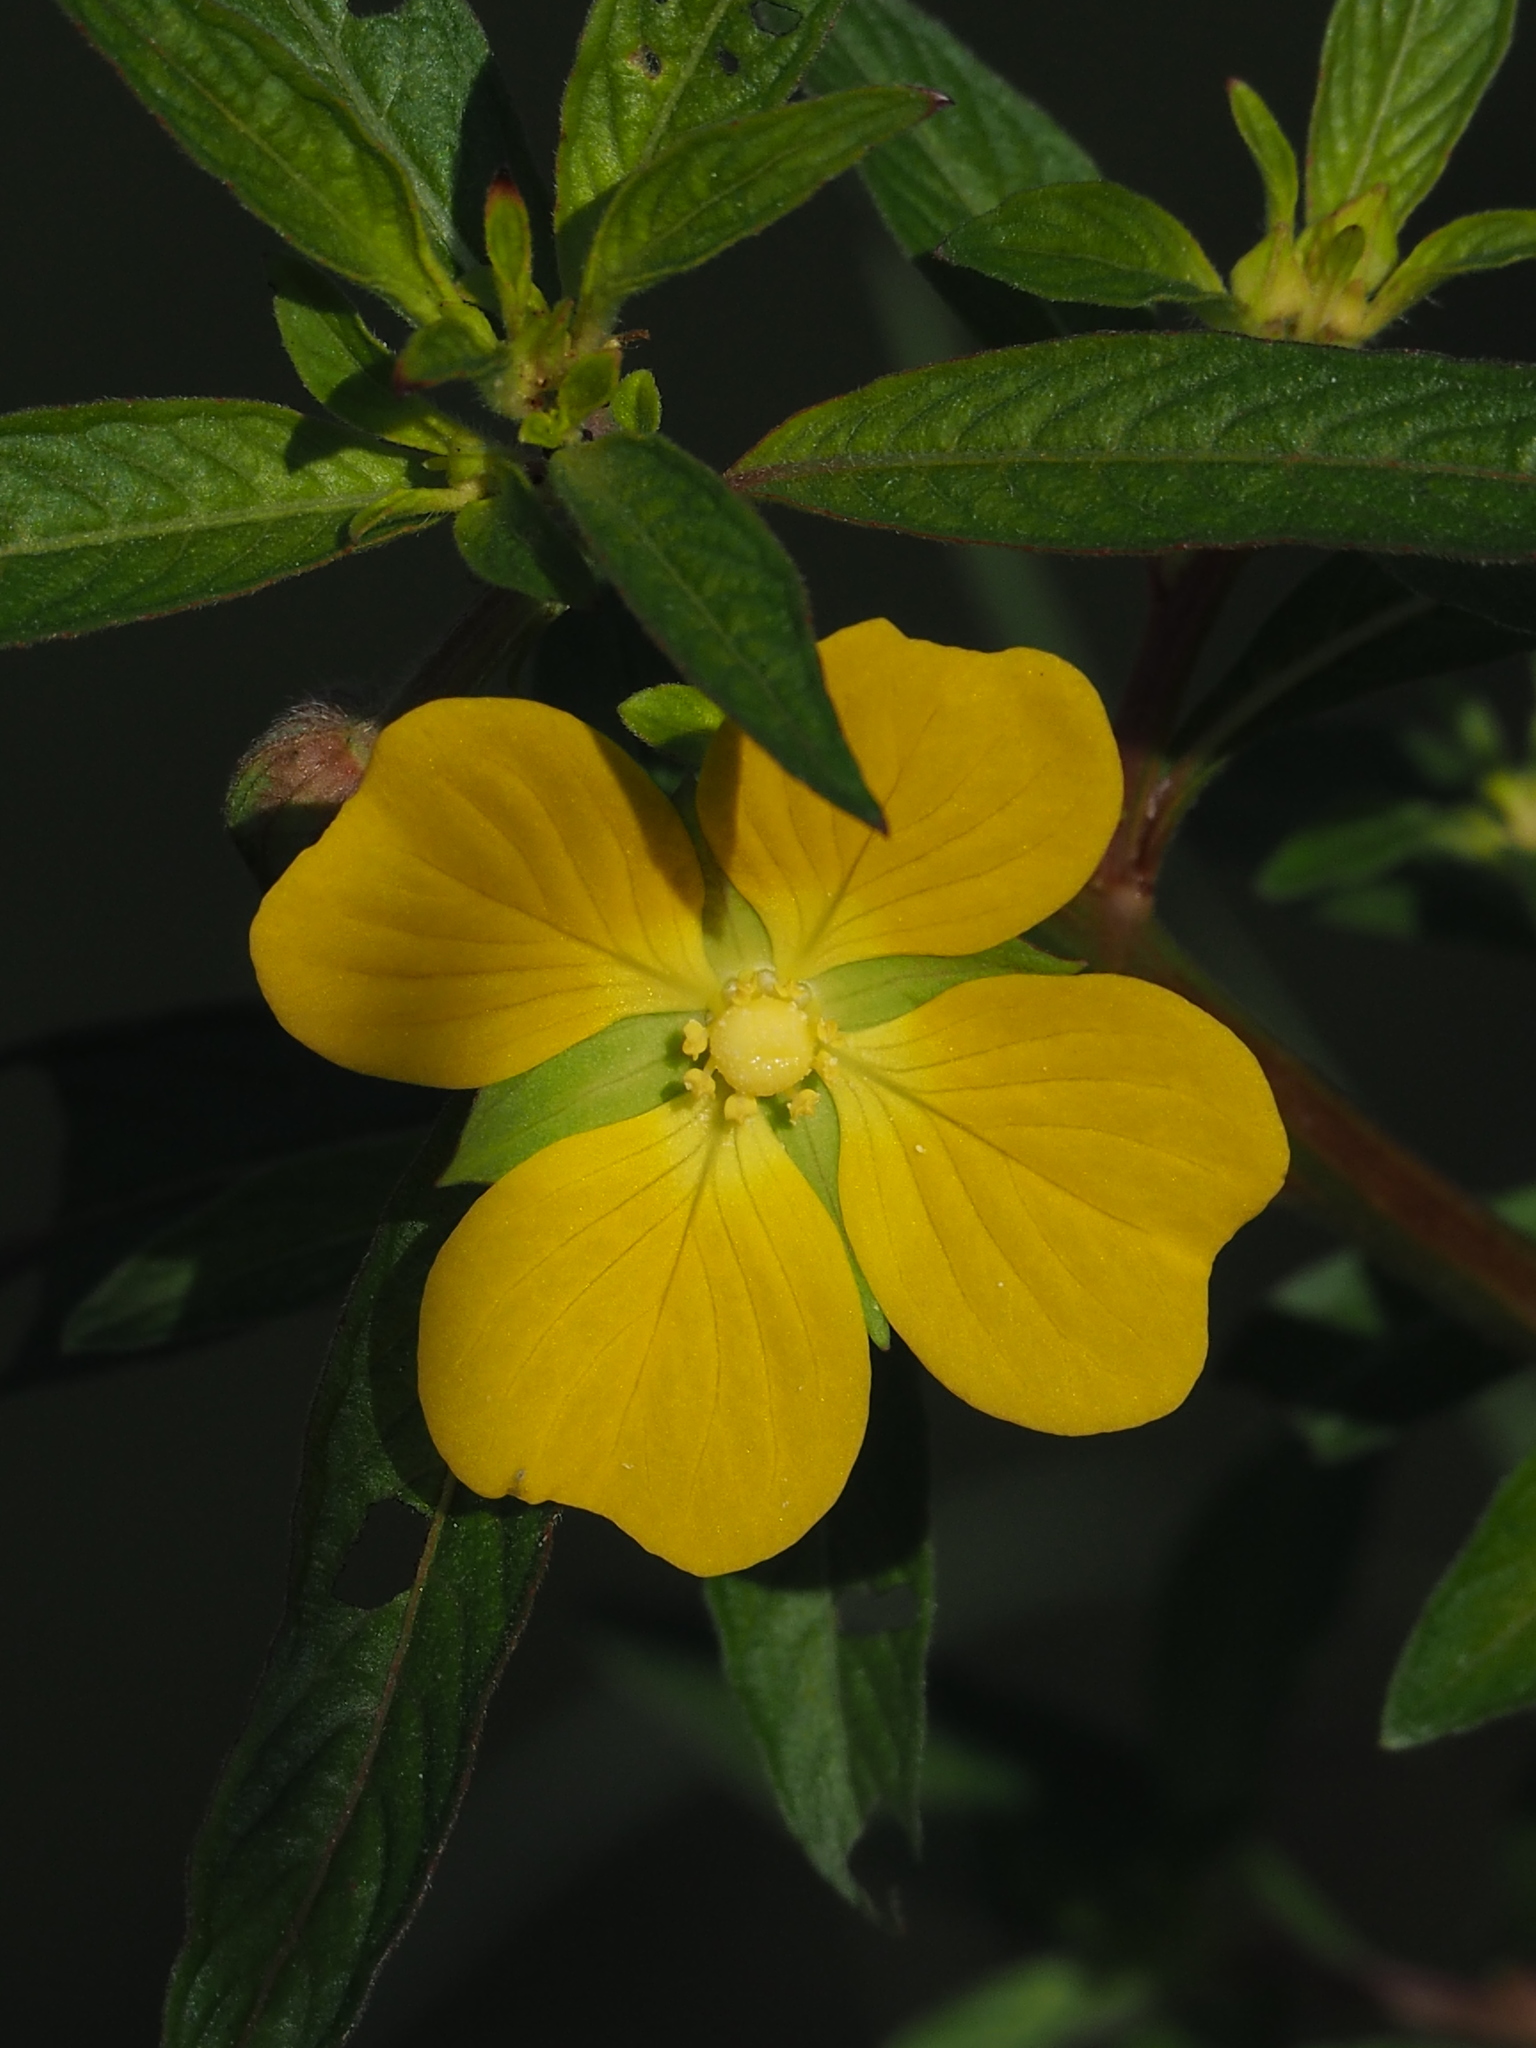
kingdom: Plantae
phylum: Tracheophyta
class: Magnoliopsida
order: Myrtales
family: Onagraceae
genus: Ludwigia
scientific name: Ludwigia octovalvis
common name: Water-primrose
